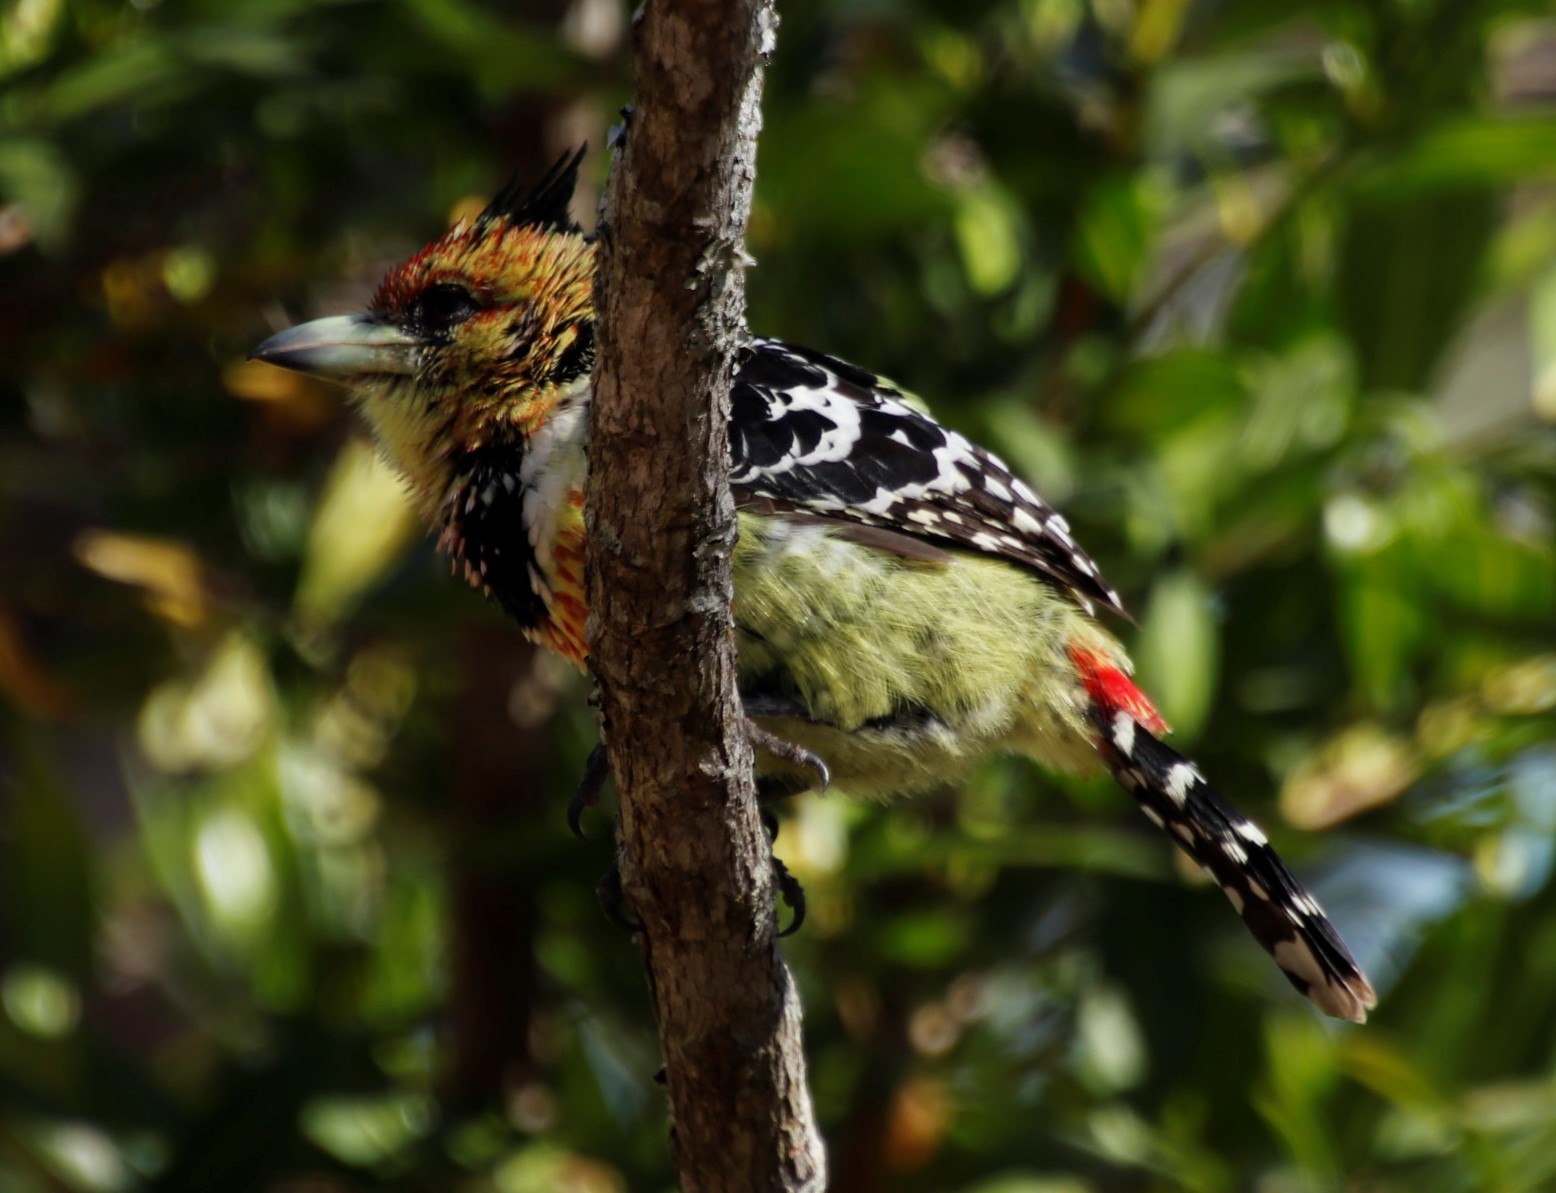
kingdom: Animalia
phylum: Chordata
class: Aves
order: Piciformes
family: Lybiidae
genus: Trachyphonus
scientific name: Trachyphonus vaillantii
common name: Crested barbet
